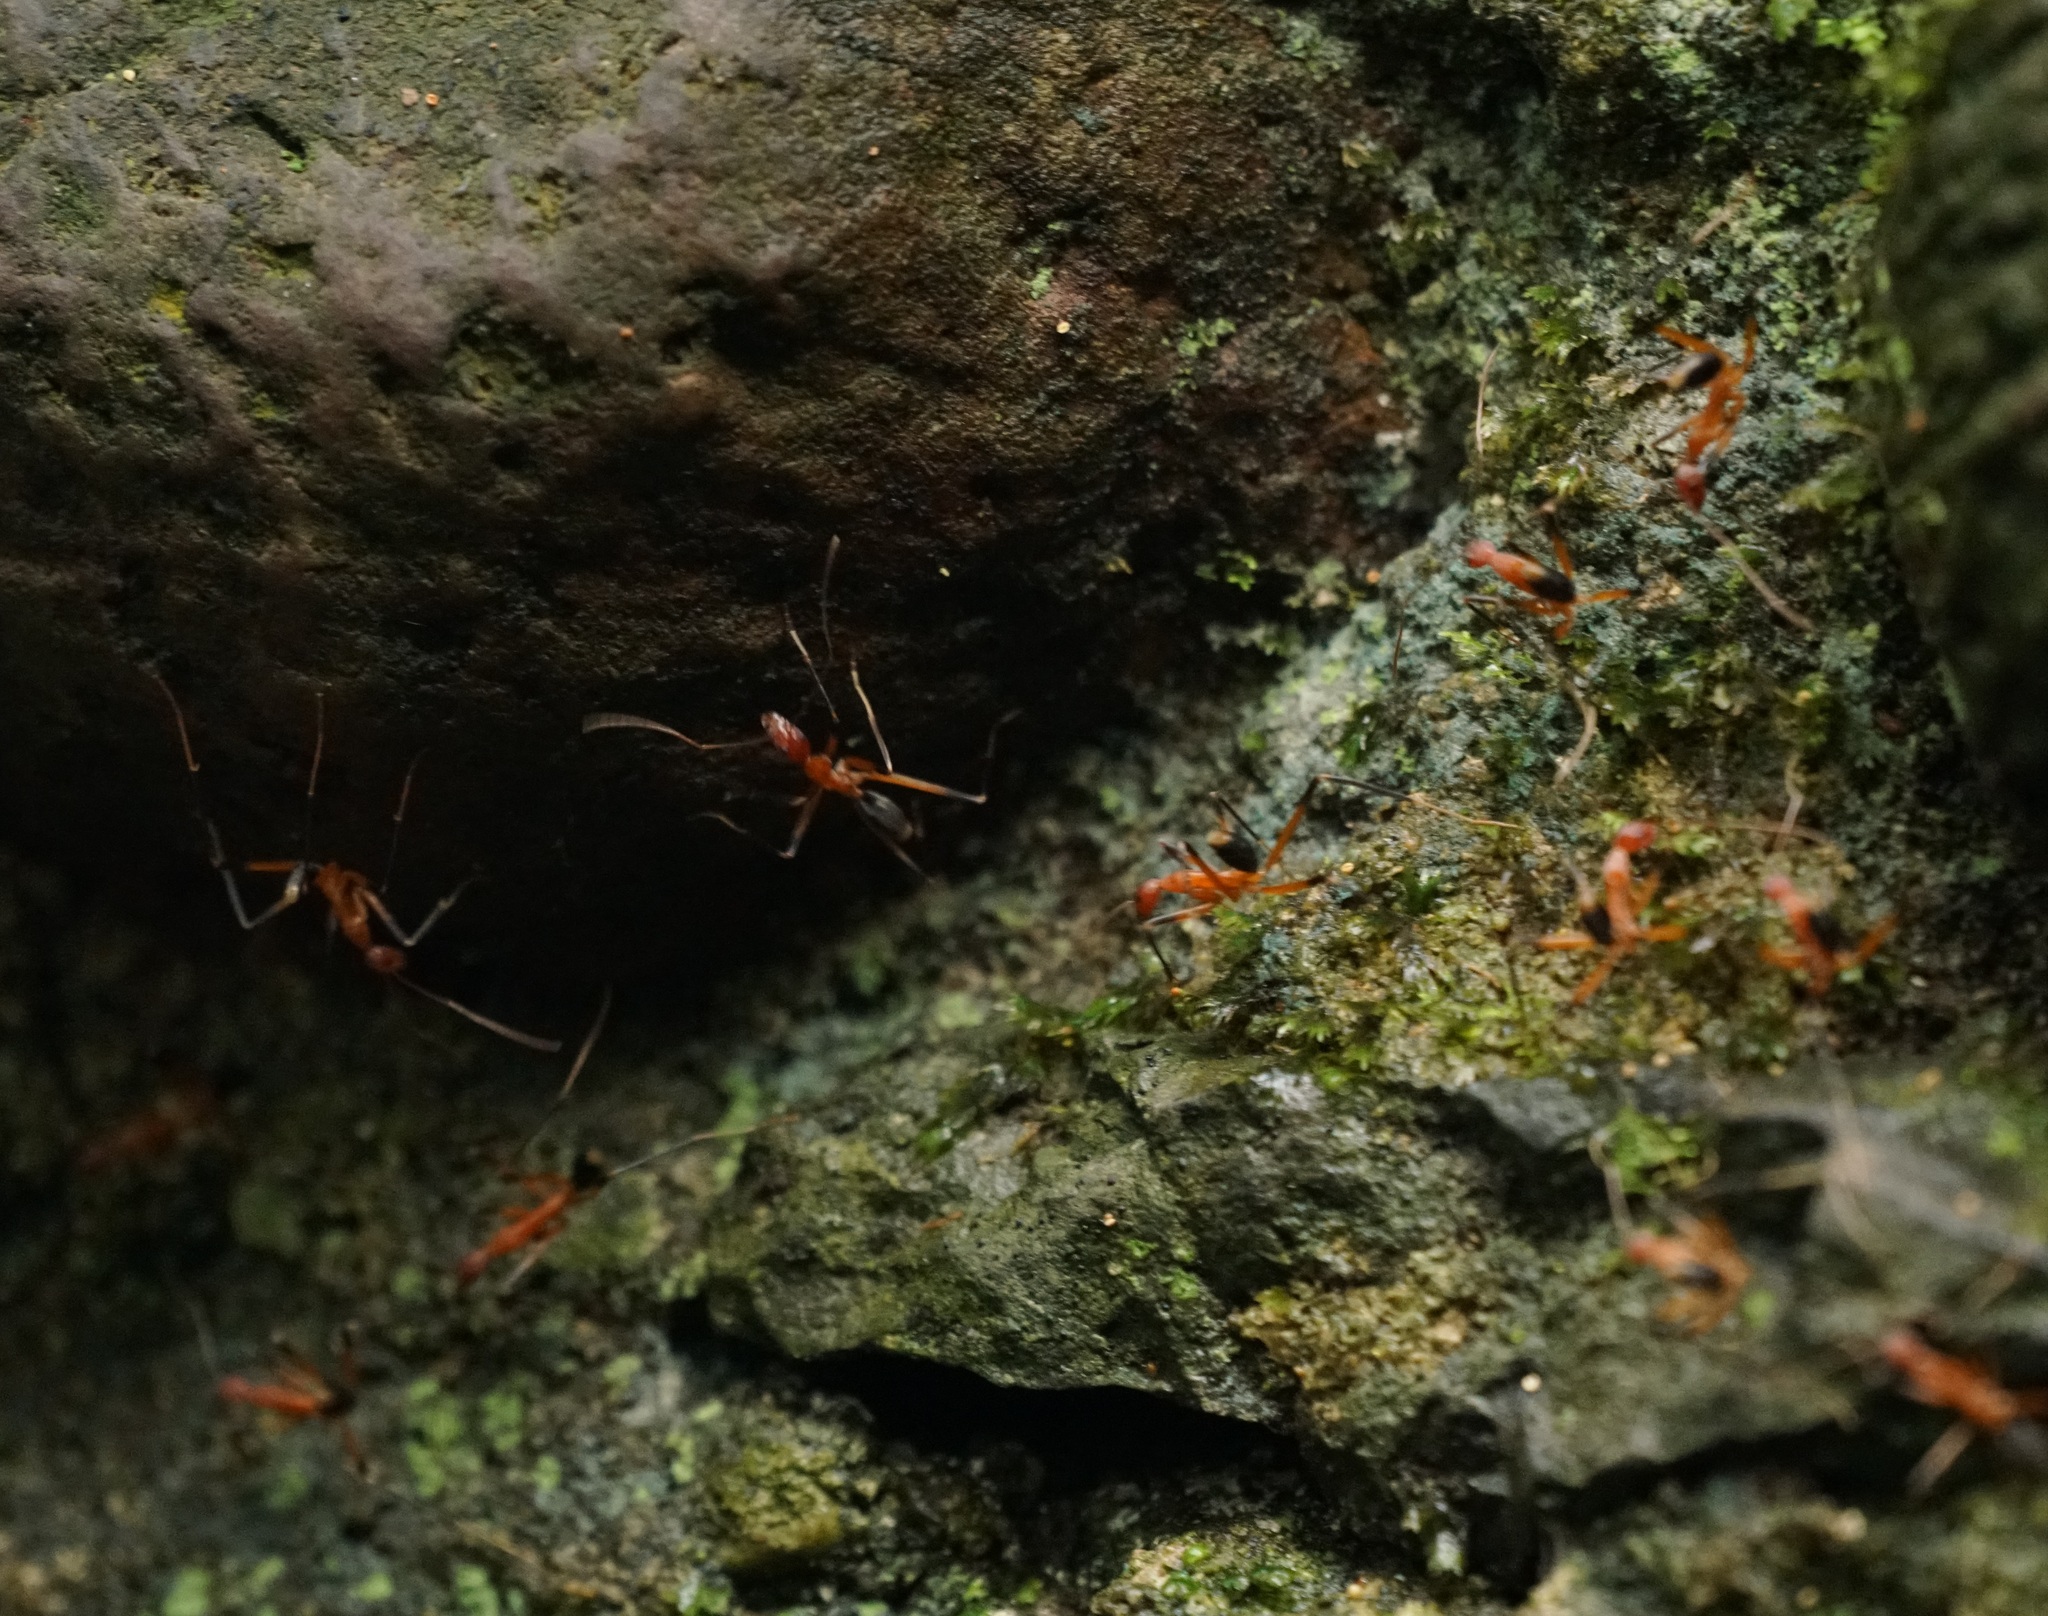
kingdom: Animalia
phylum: Arthropoda
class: Insecta
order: Hymenoptera
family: Formicidae
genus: Leptomyrmex
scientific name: Leptomyrmex cnemidatus
